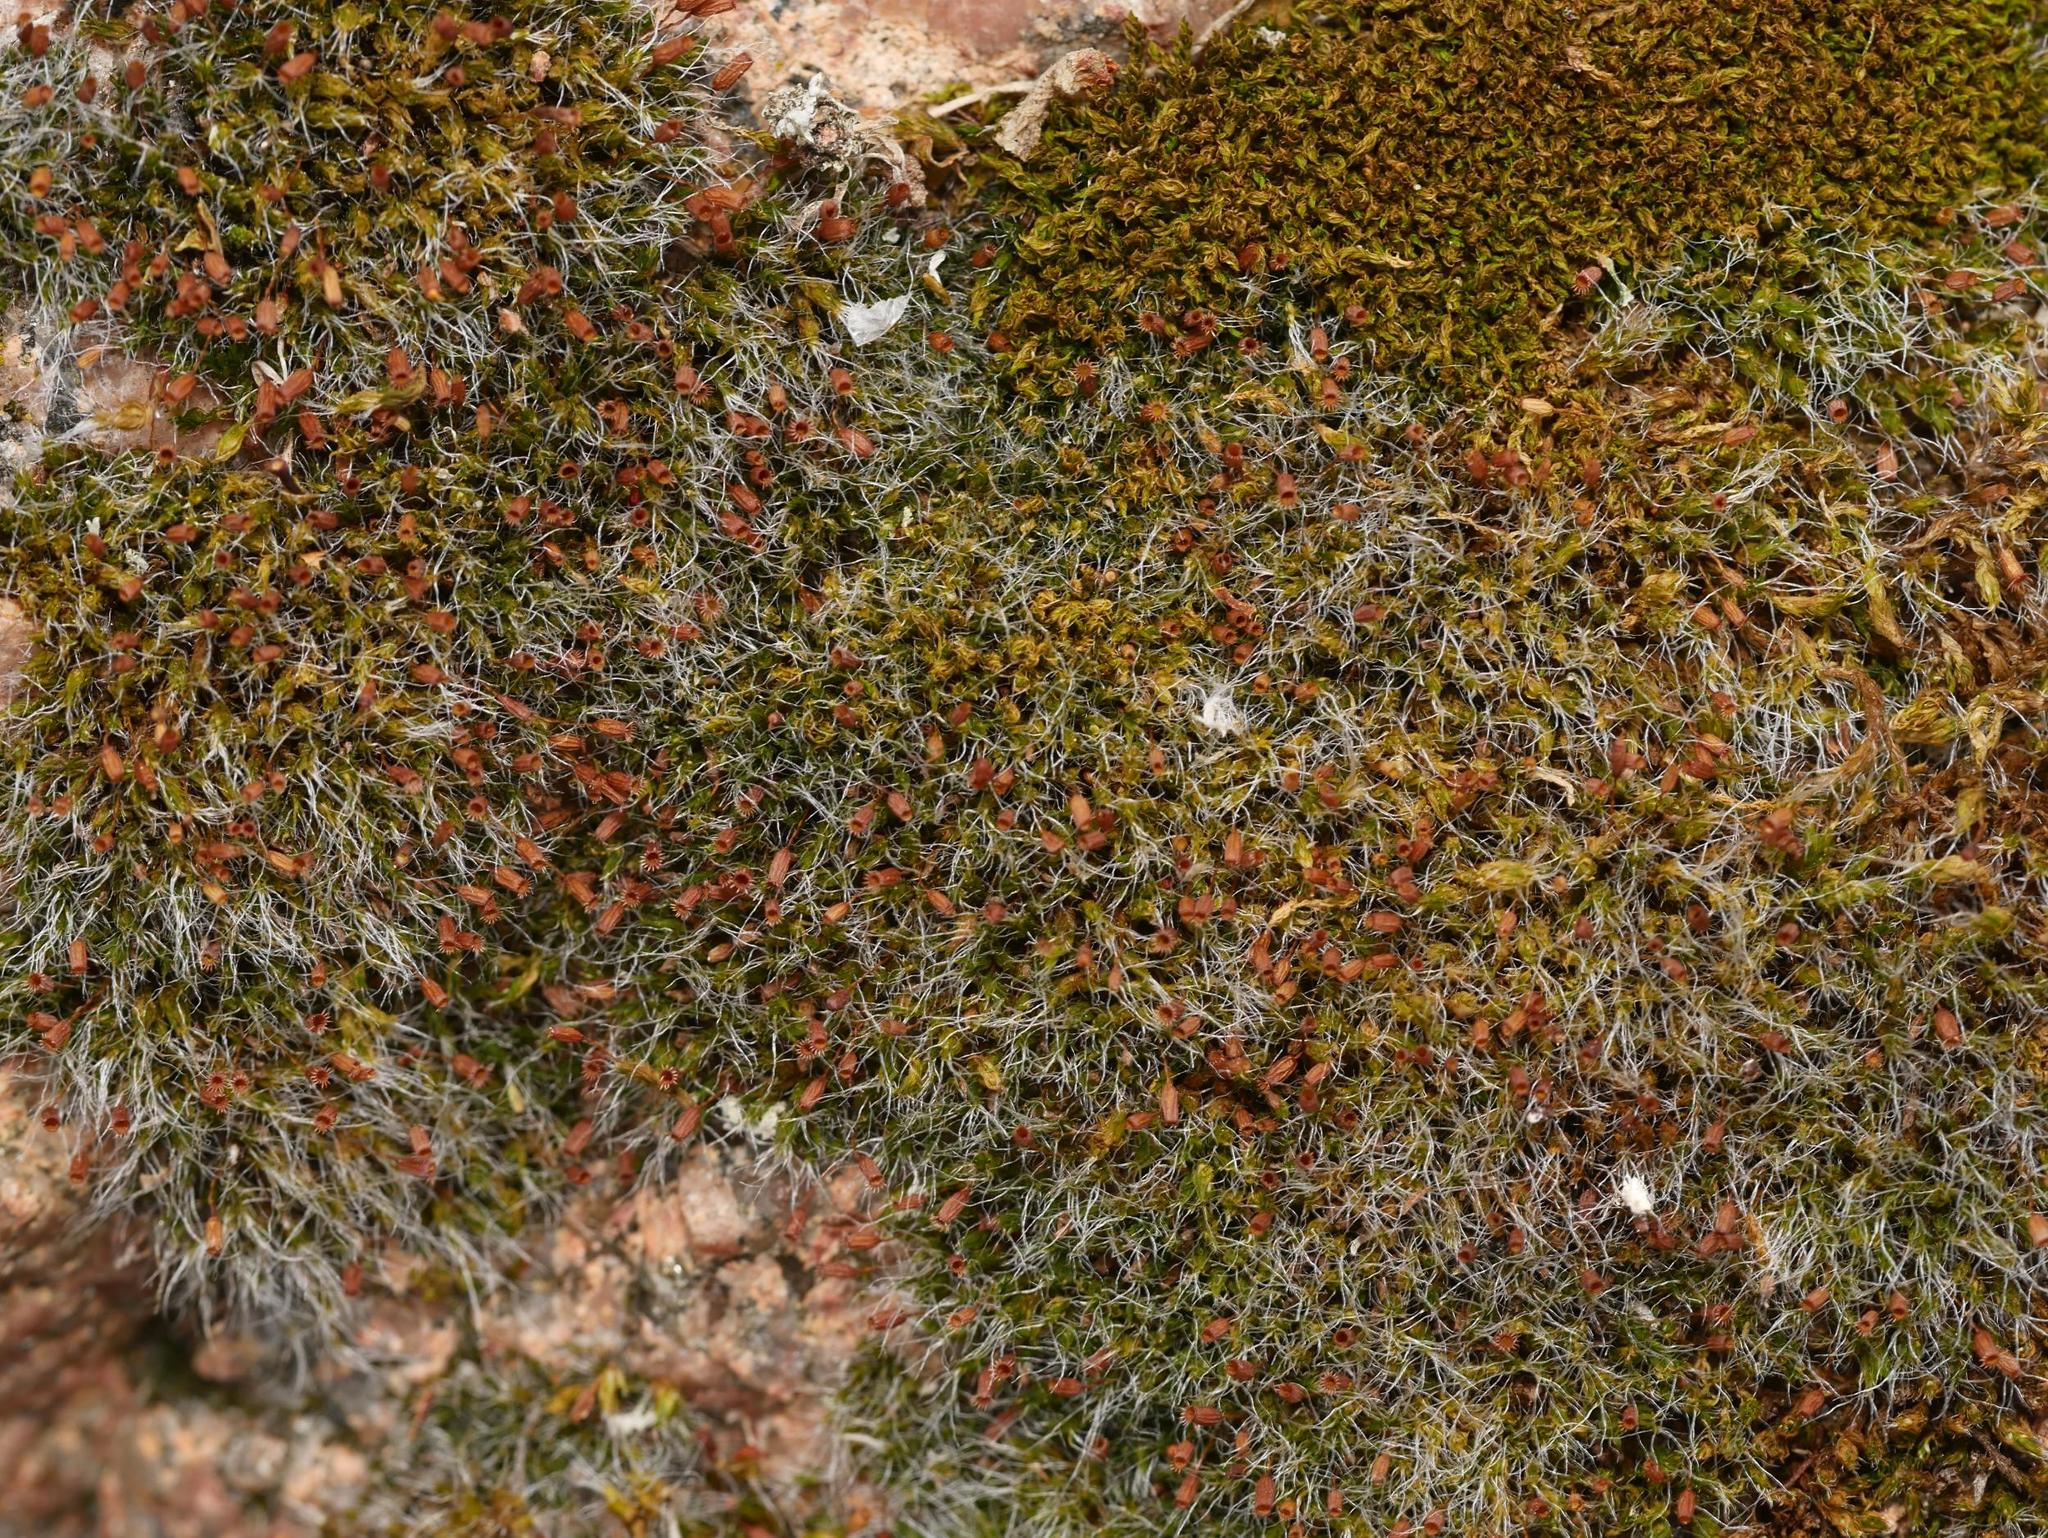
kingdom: Plantae
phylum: Bryophyta
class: Bryopsida
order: Grimmiales
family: Grimmiaceae
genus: Grimmia
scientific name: Grimmia pulvinata
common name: Grey-cushioned grimmia
